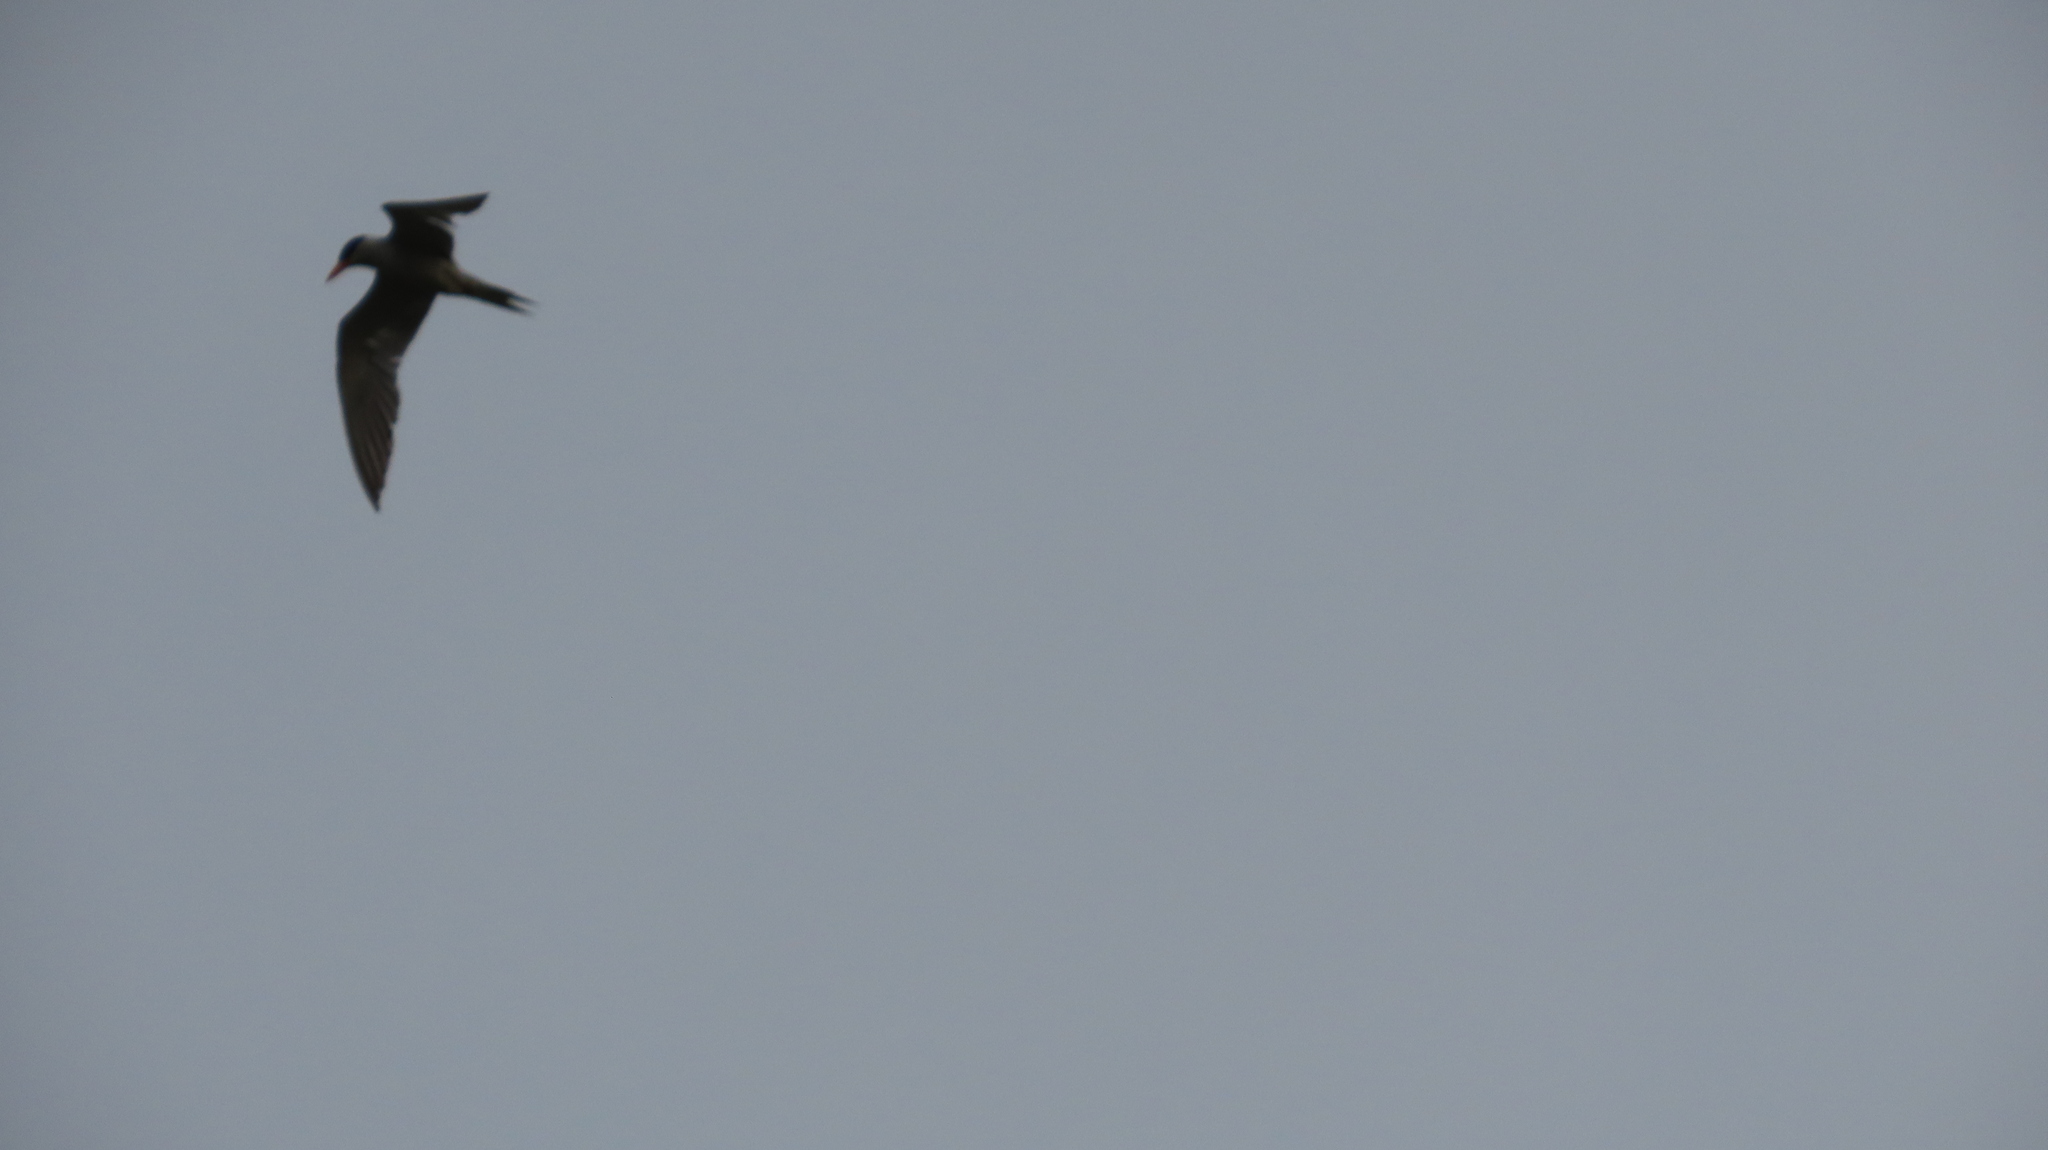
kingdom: Animalia
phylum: Chordata
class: Aves
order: Charadriiformes
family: Laridae
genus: Sterna
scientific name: Sterna aurantia
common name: River tern
